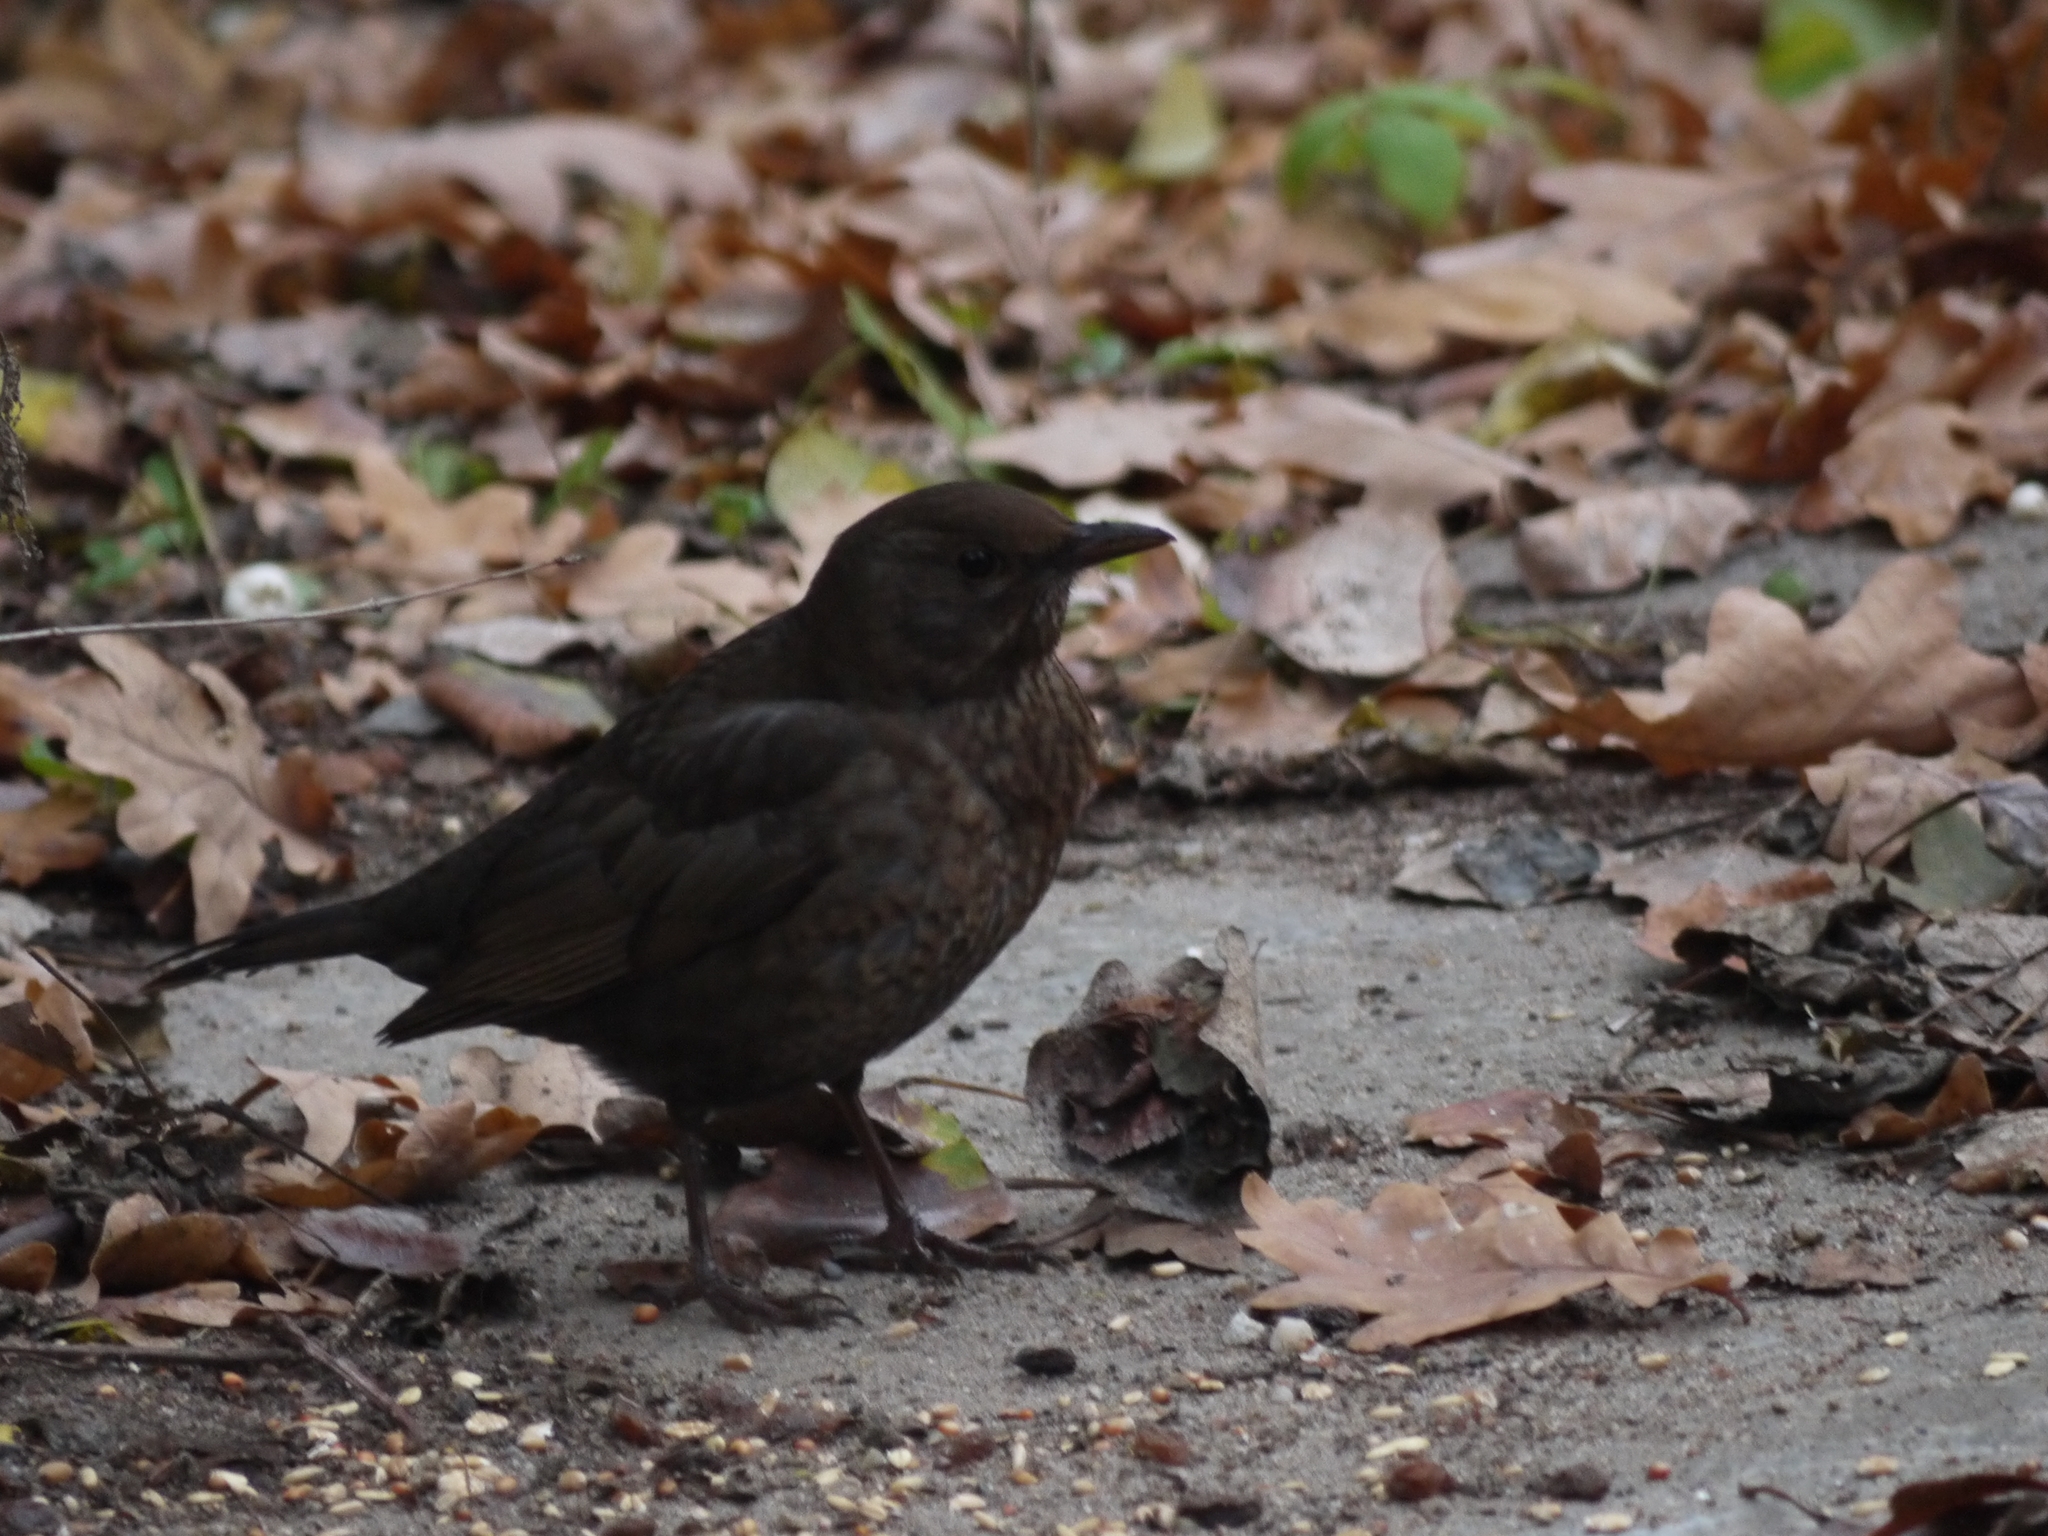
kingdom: Animalia
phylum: Chordata
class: Aves
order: Passeriformes
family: Turdidae
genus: Turdus
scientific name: Turdus merula
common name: Common blackbird
